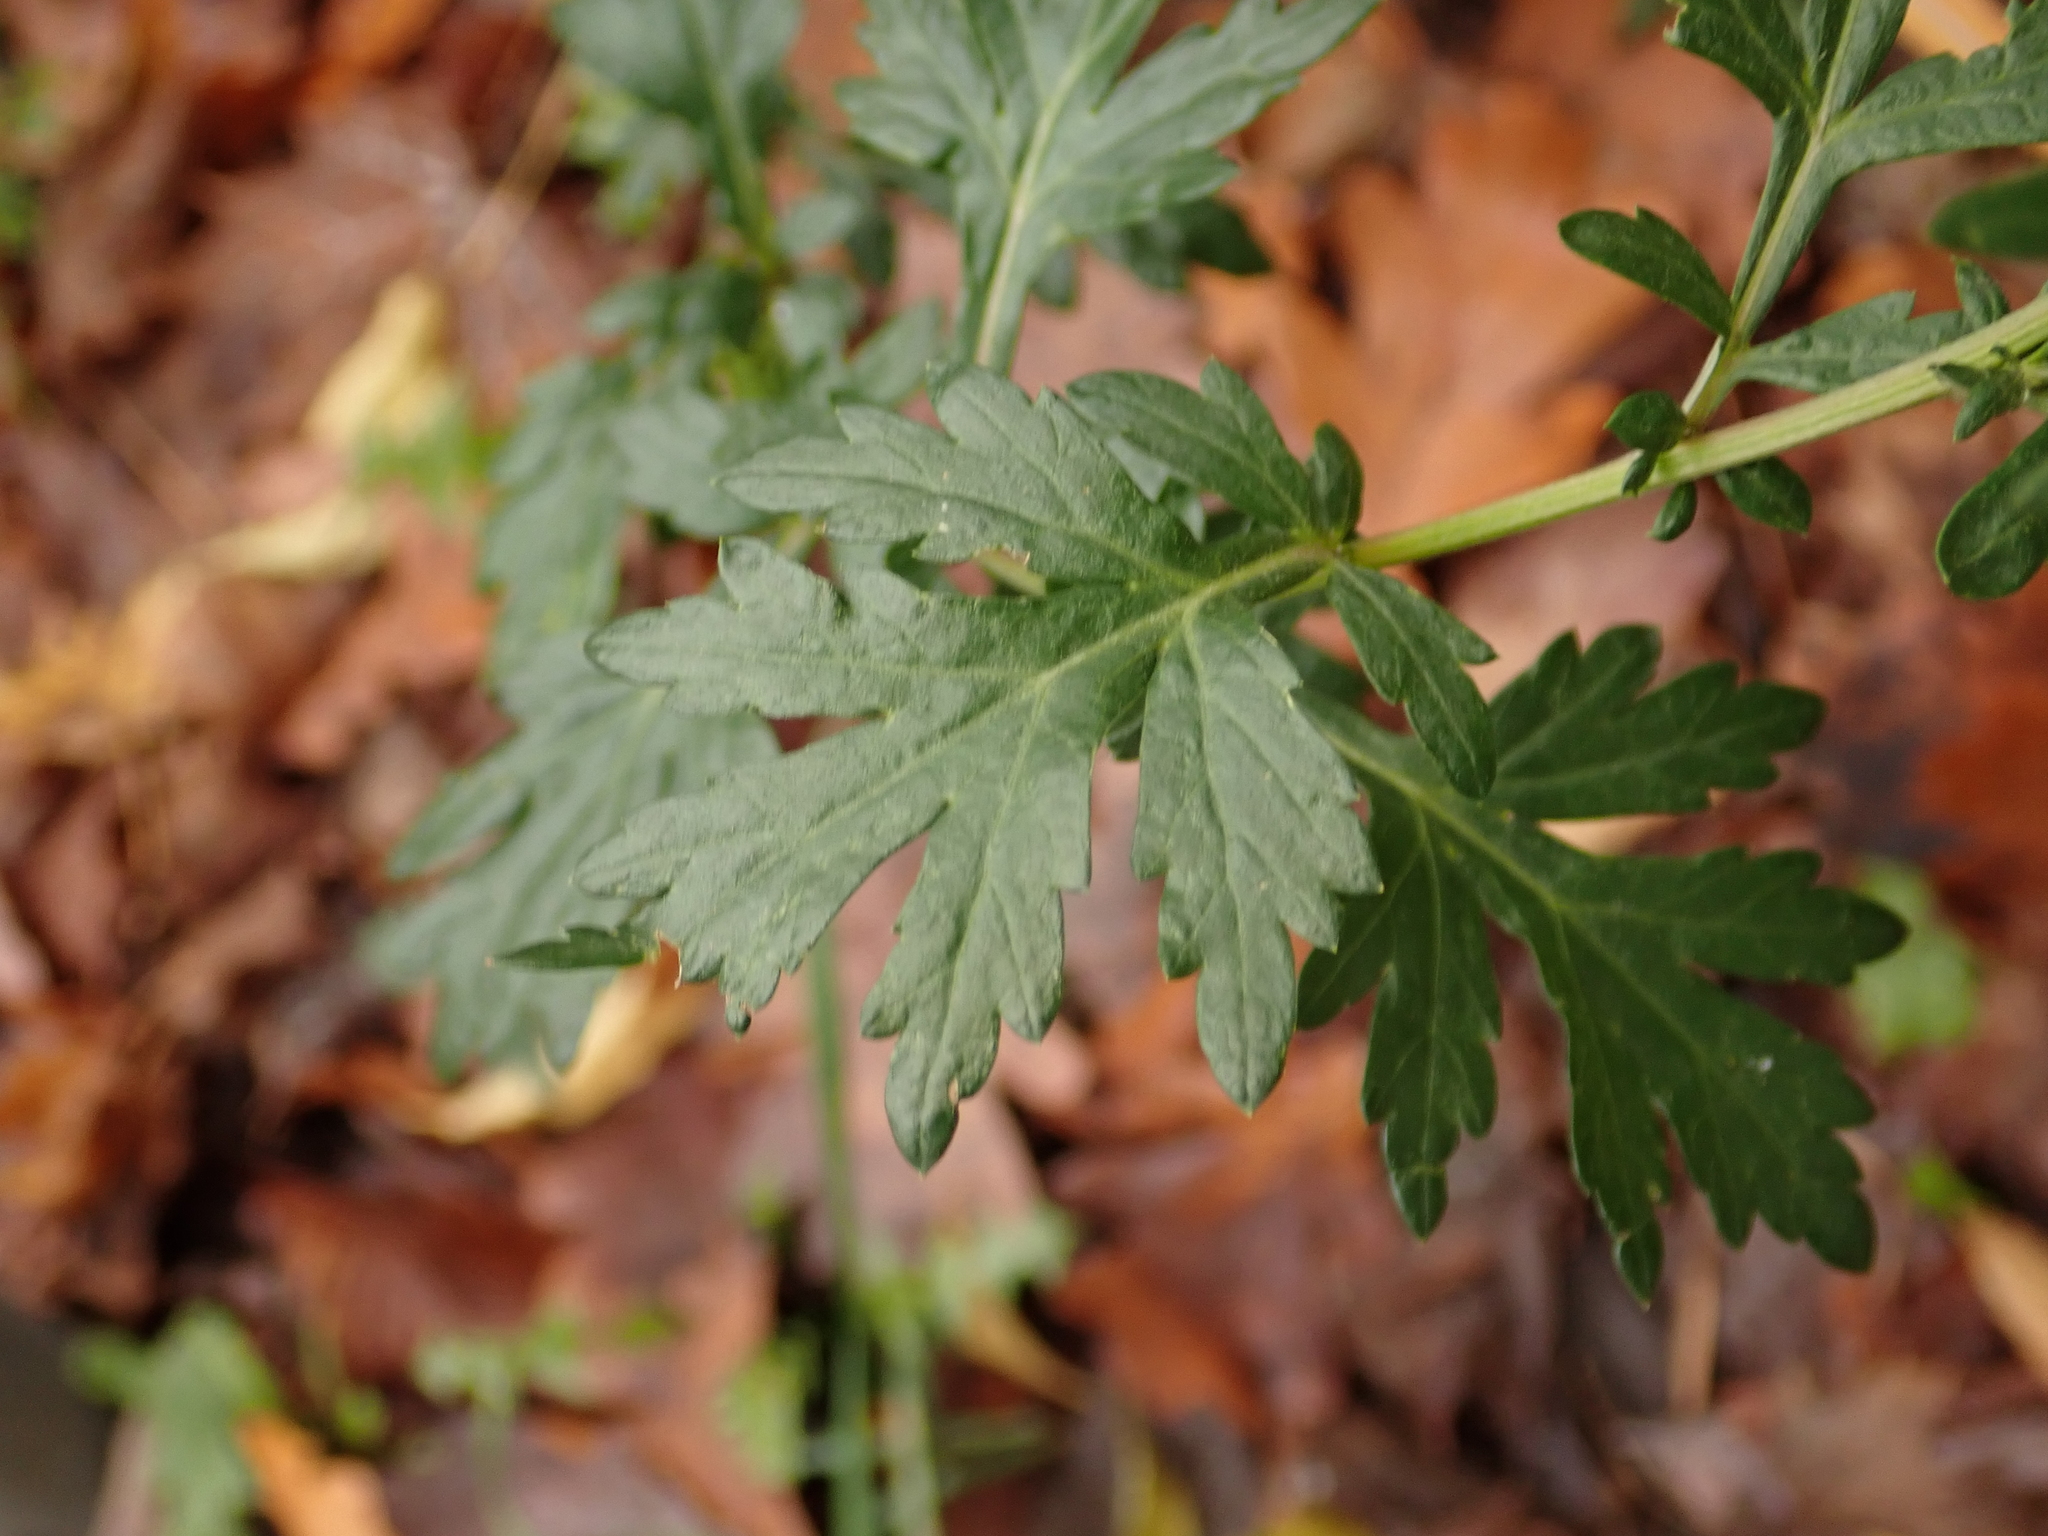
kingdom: Plantae
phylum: Tracheophyta
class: Magnoliopsida
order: Asterales
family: Asteraceae
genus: Artemisia
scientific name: Artemisia vulgaris
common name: Mugwort
